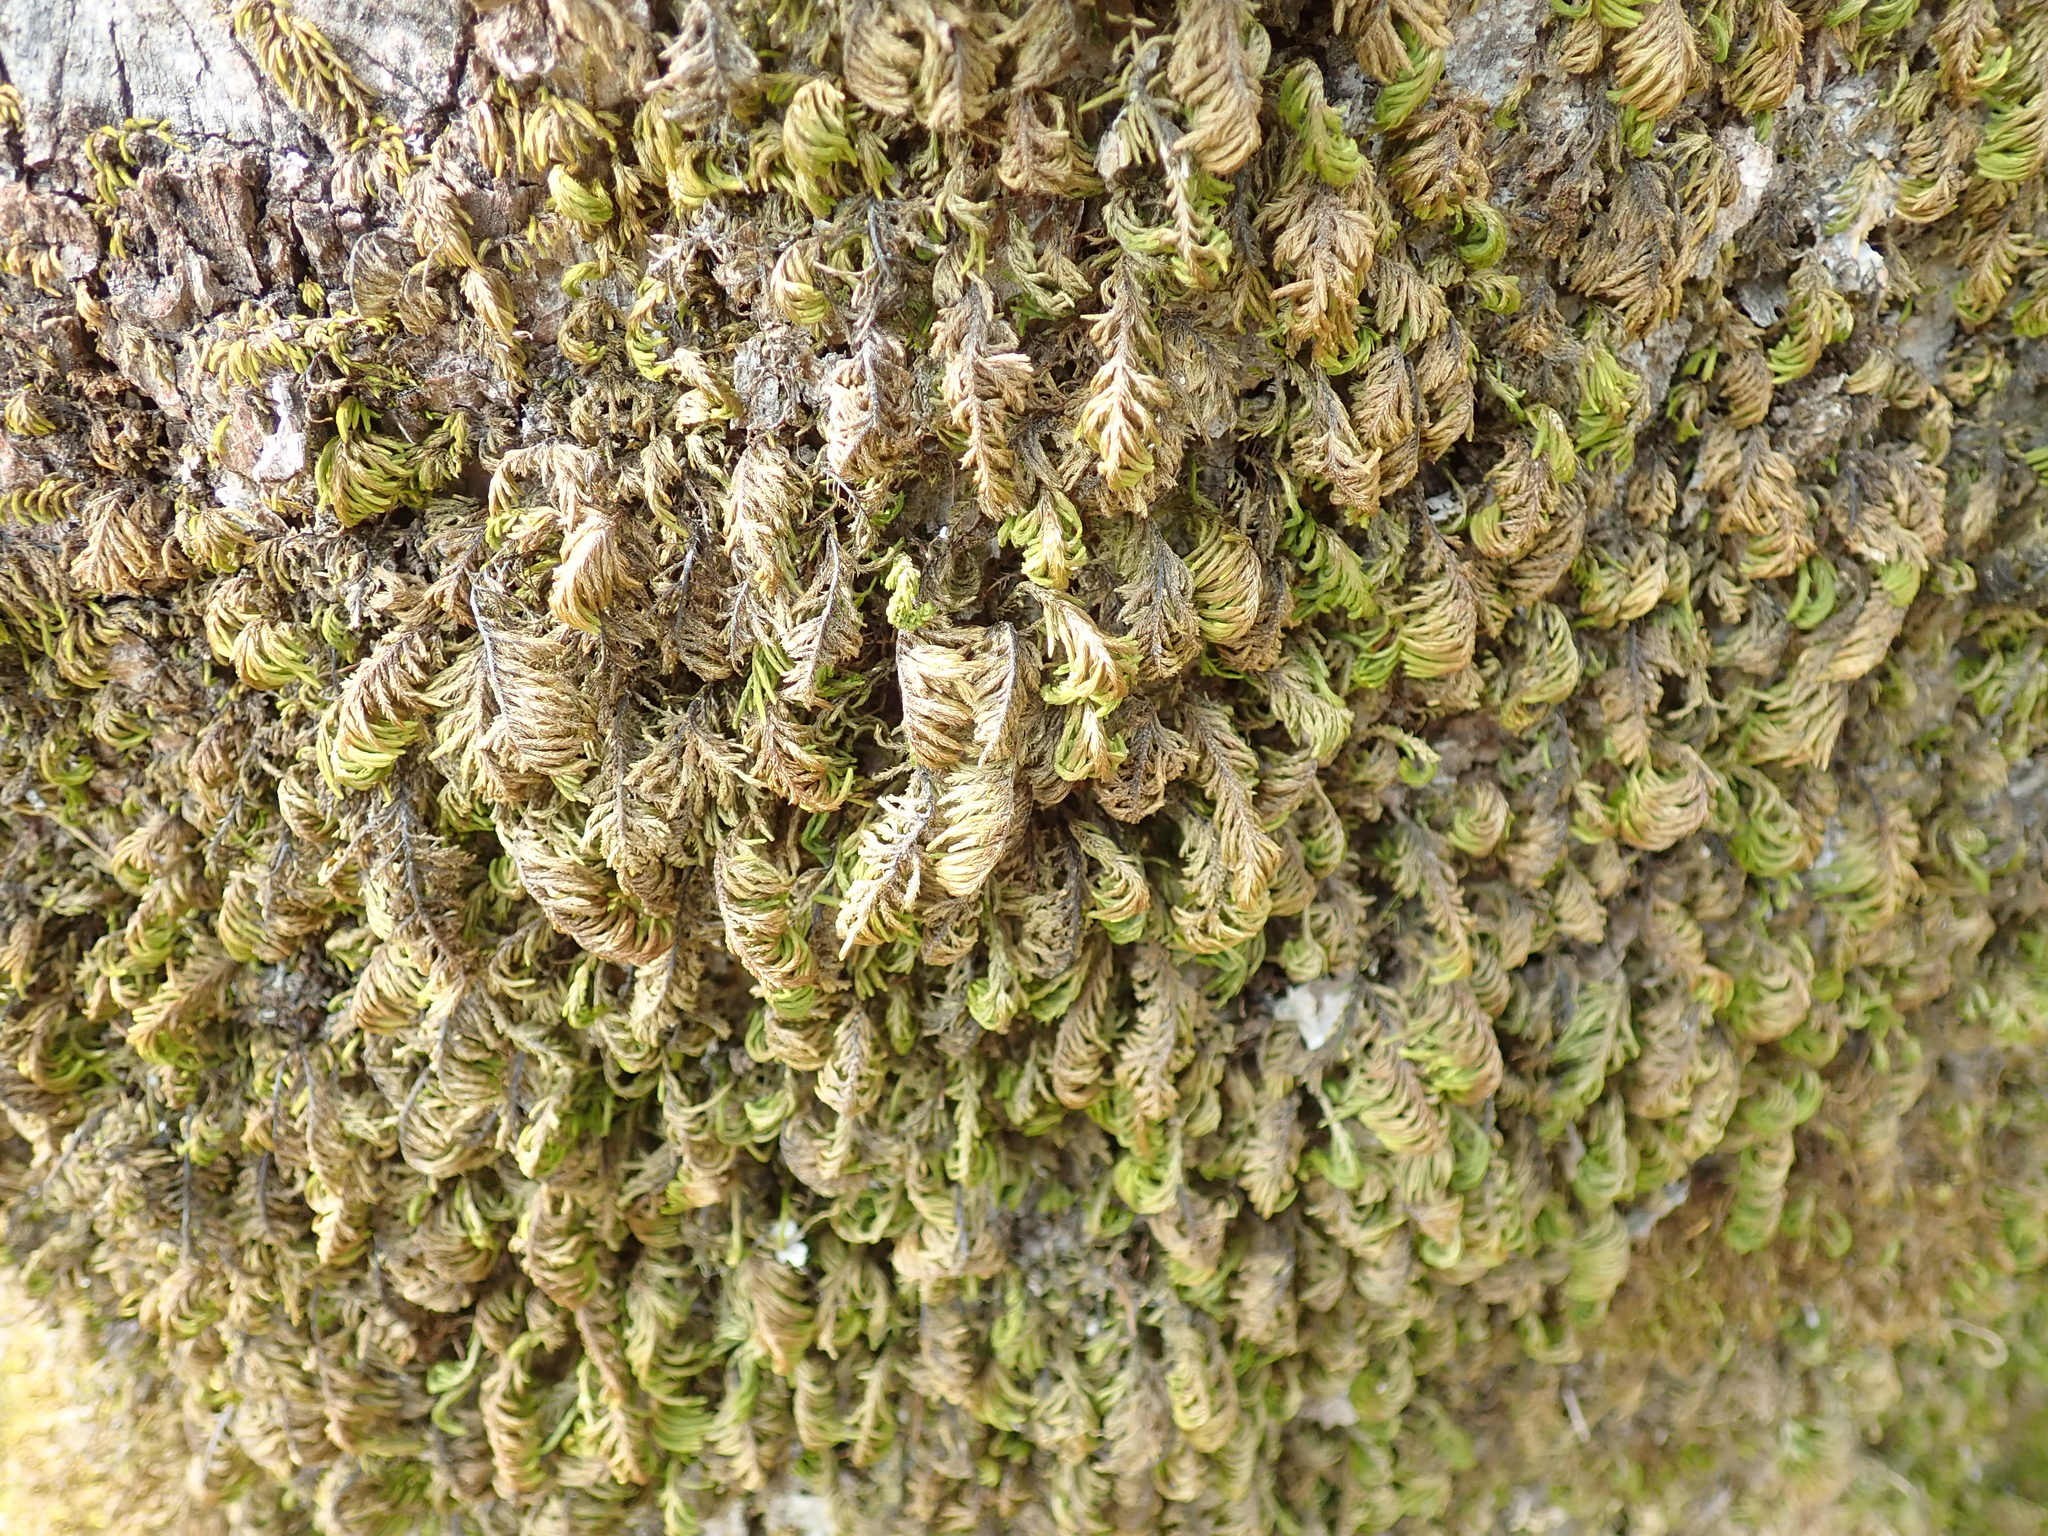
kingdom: Plantae
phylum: Bryophyta
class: Bryopsida
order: Hypnales
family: Cryphaeaceae
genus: Dendroalsia
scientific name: Dendroalsia abietina
